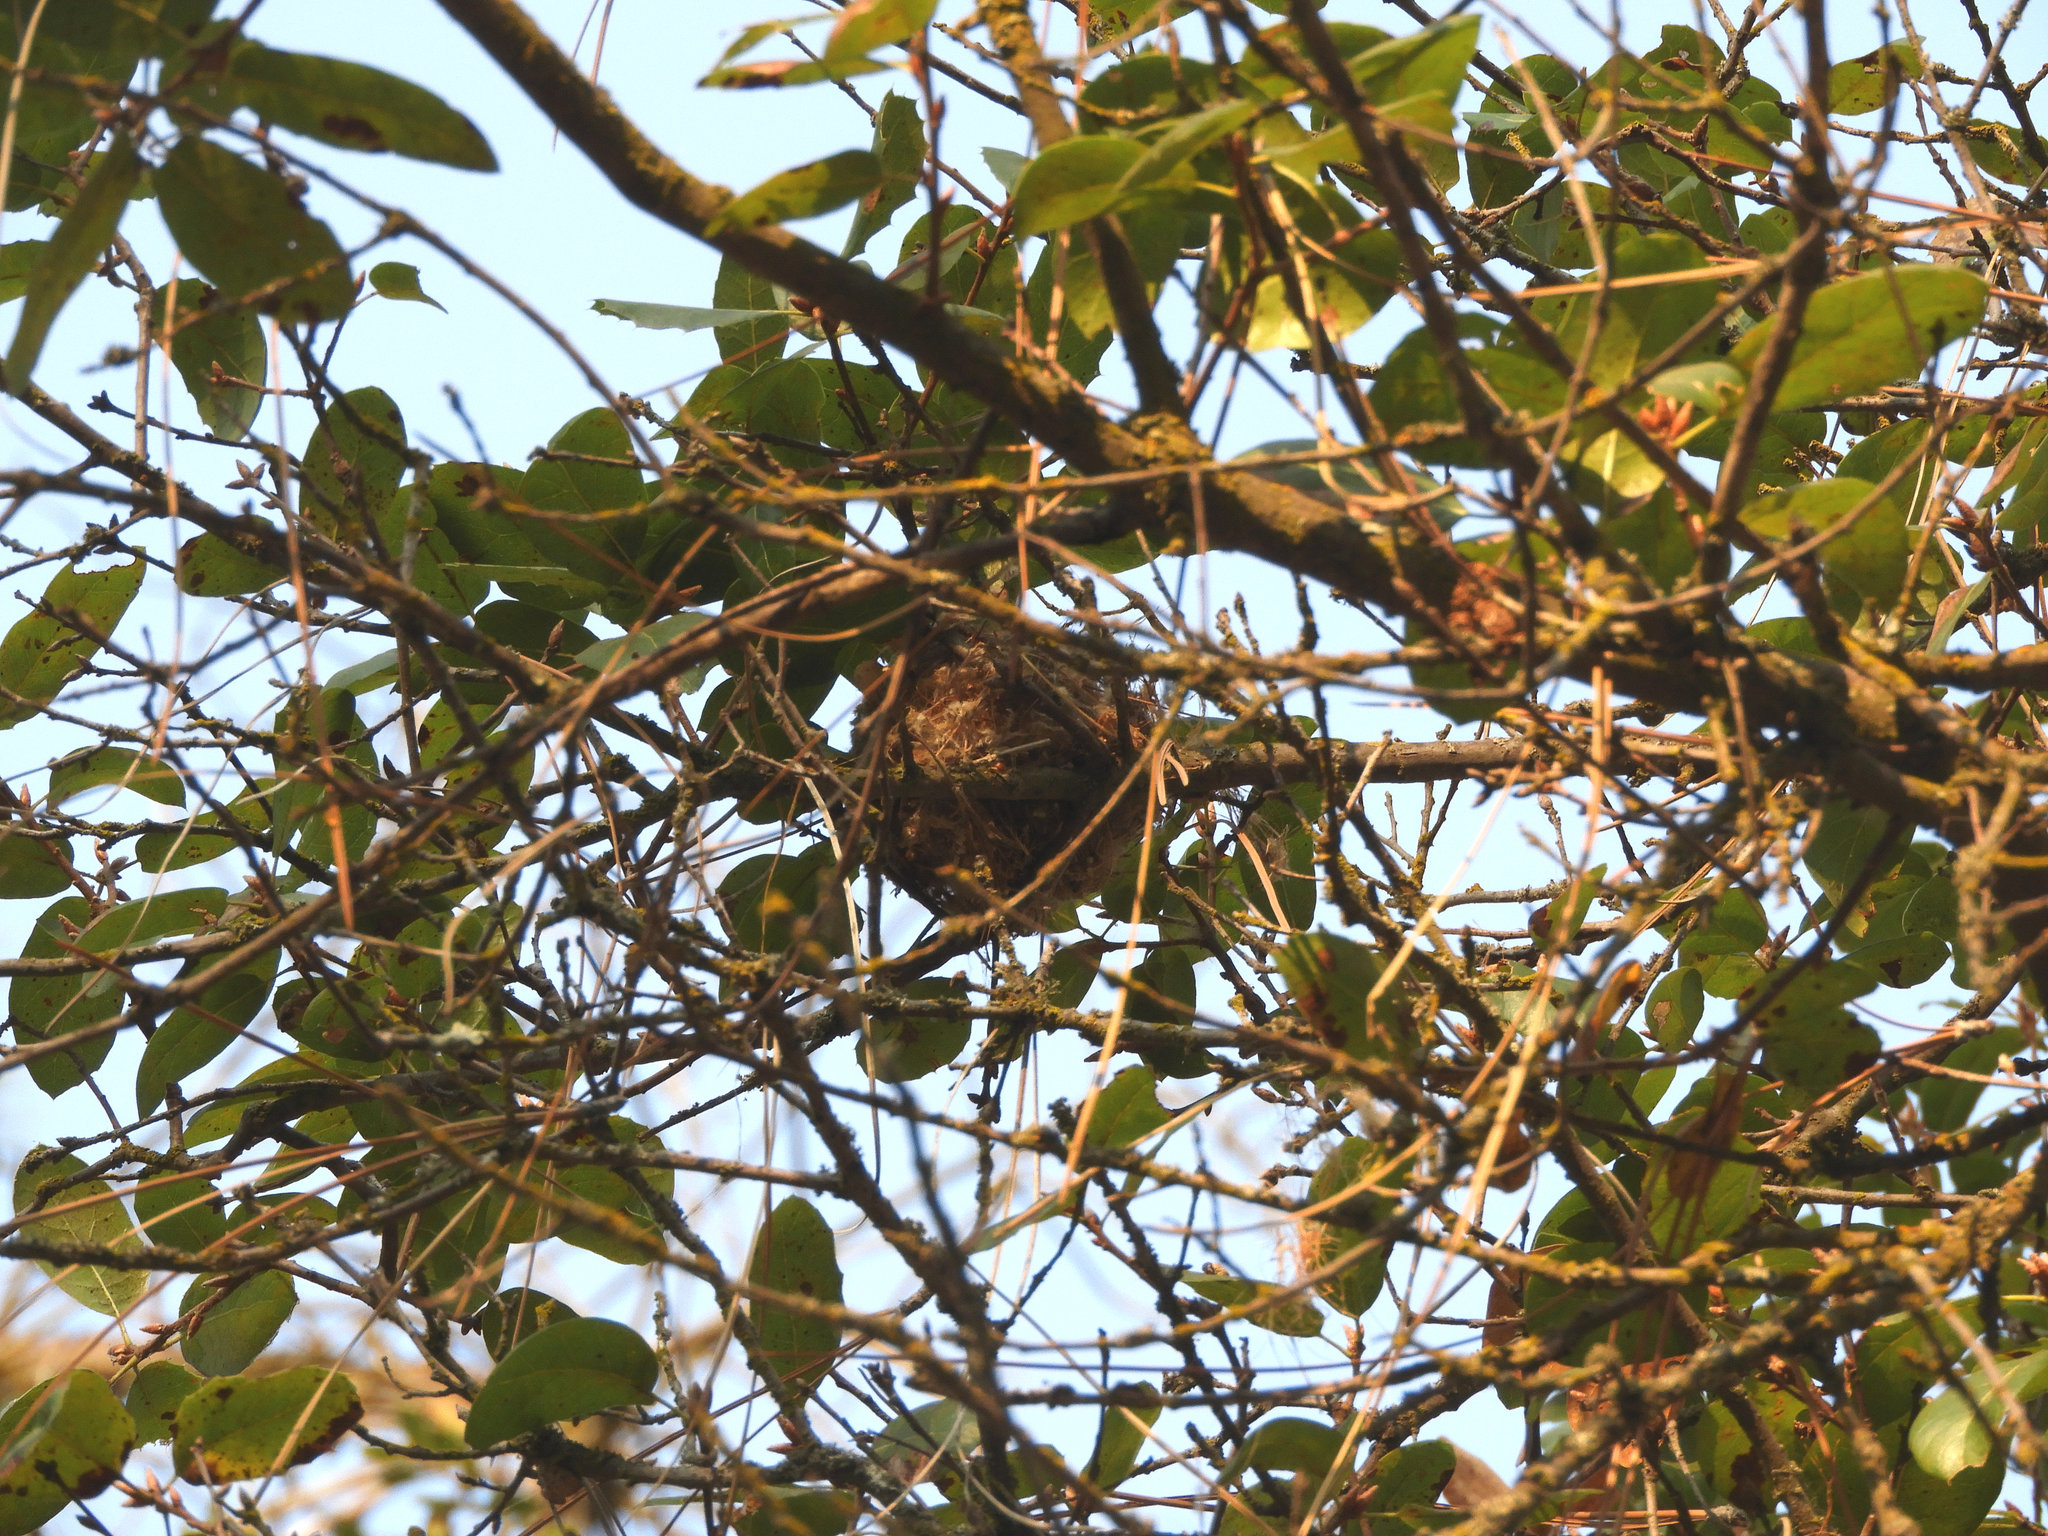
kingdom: Animalia
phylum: Chordata
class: Aves
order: Passeriformes
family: Vireonidae
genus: Vireo
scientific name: Vireo huttoni
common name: Hutton's vireo
